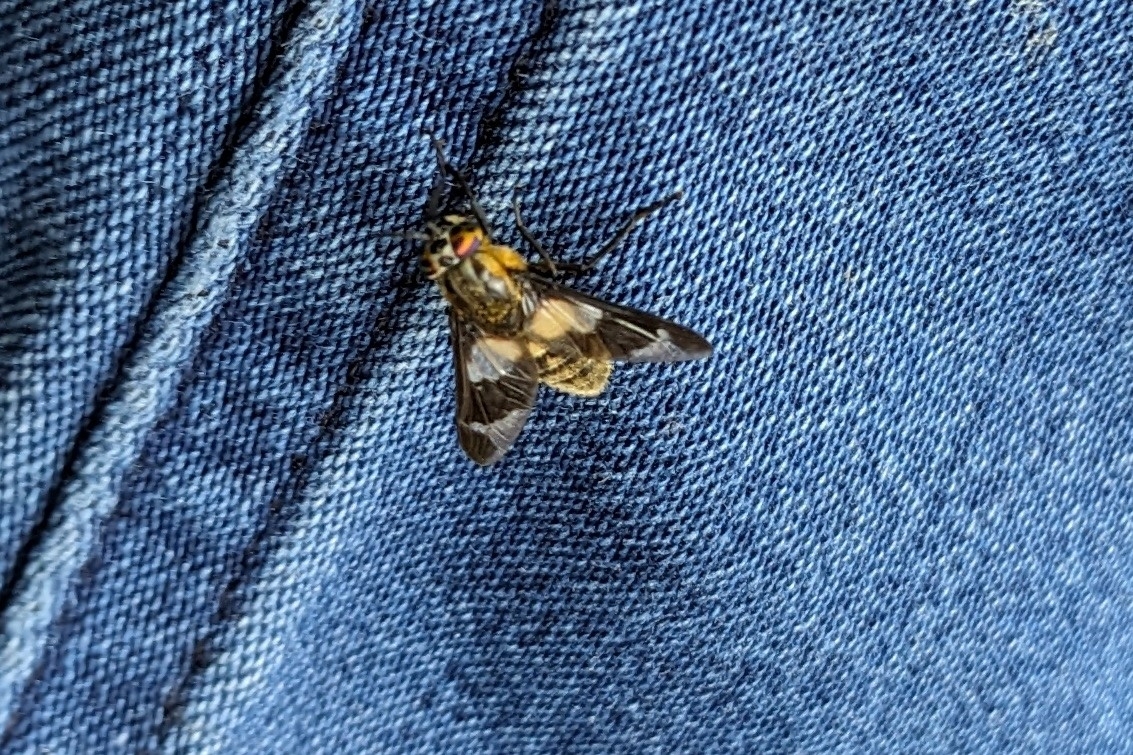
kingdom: Animalia
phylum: Arthropoda
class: Insecta
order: Diptera
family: Tabanidae
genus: Chrysops
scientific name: Chrysops caecutiens
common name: Splayed deerfly
